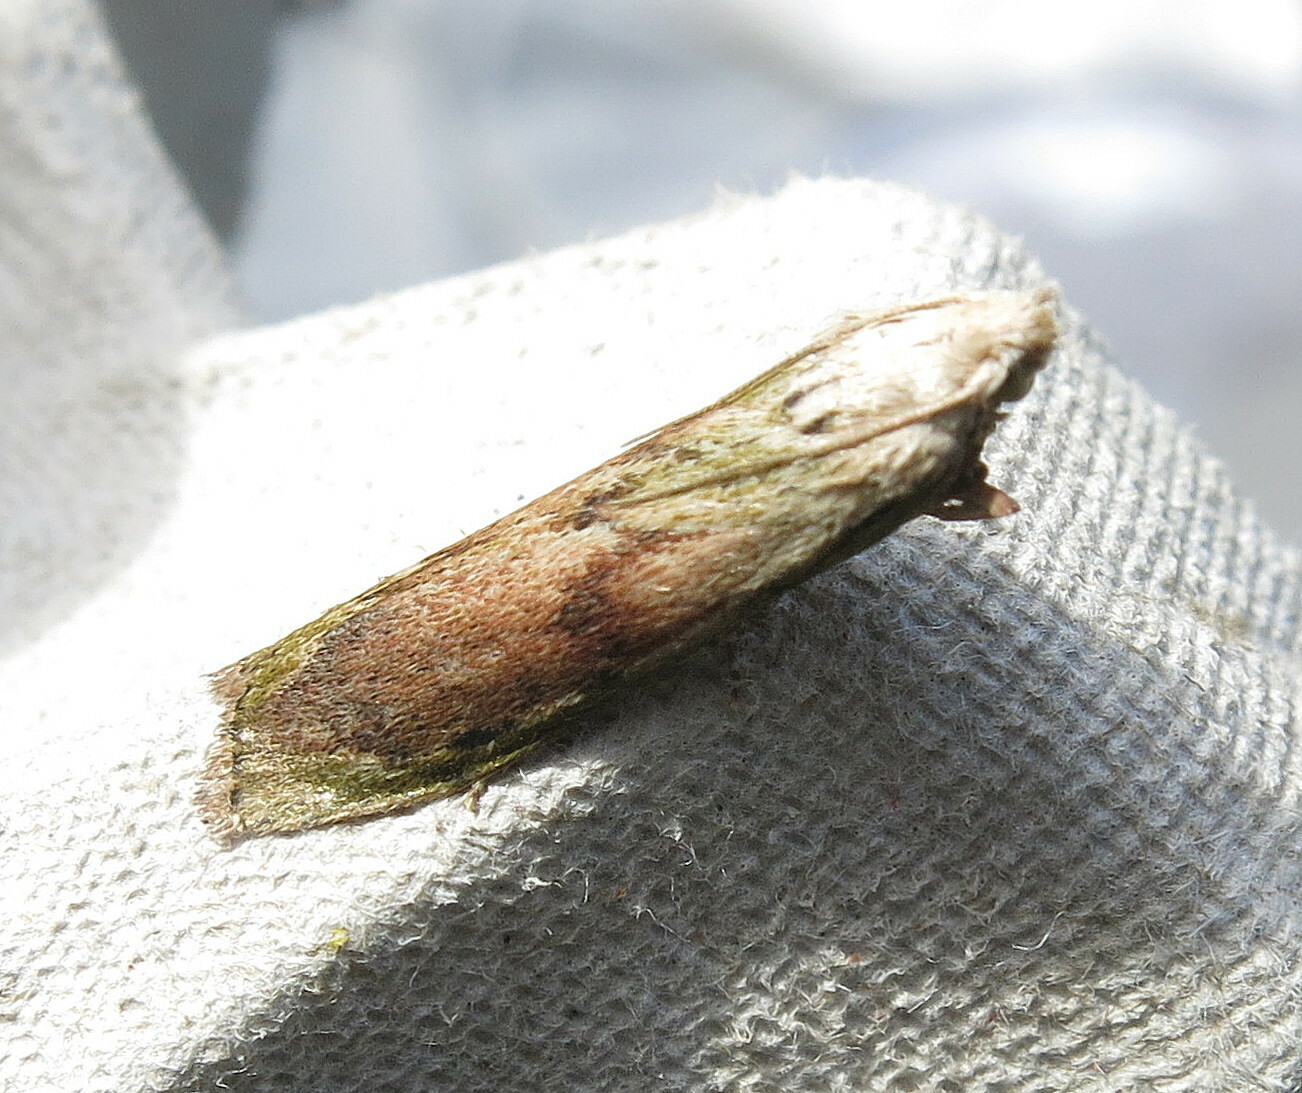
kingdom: Animalia
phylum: Arthropoda
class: Insecta
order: Lepidoptera
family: Pyralidae
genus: Aphomia
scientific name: Aphomia sociella
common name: Bee moth
